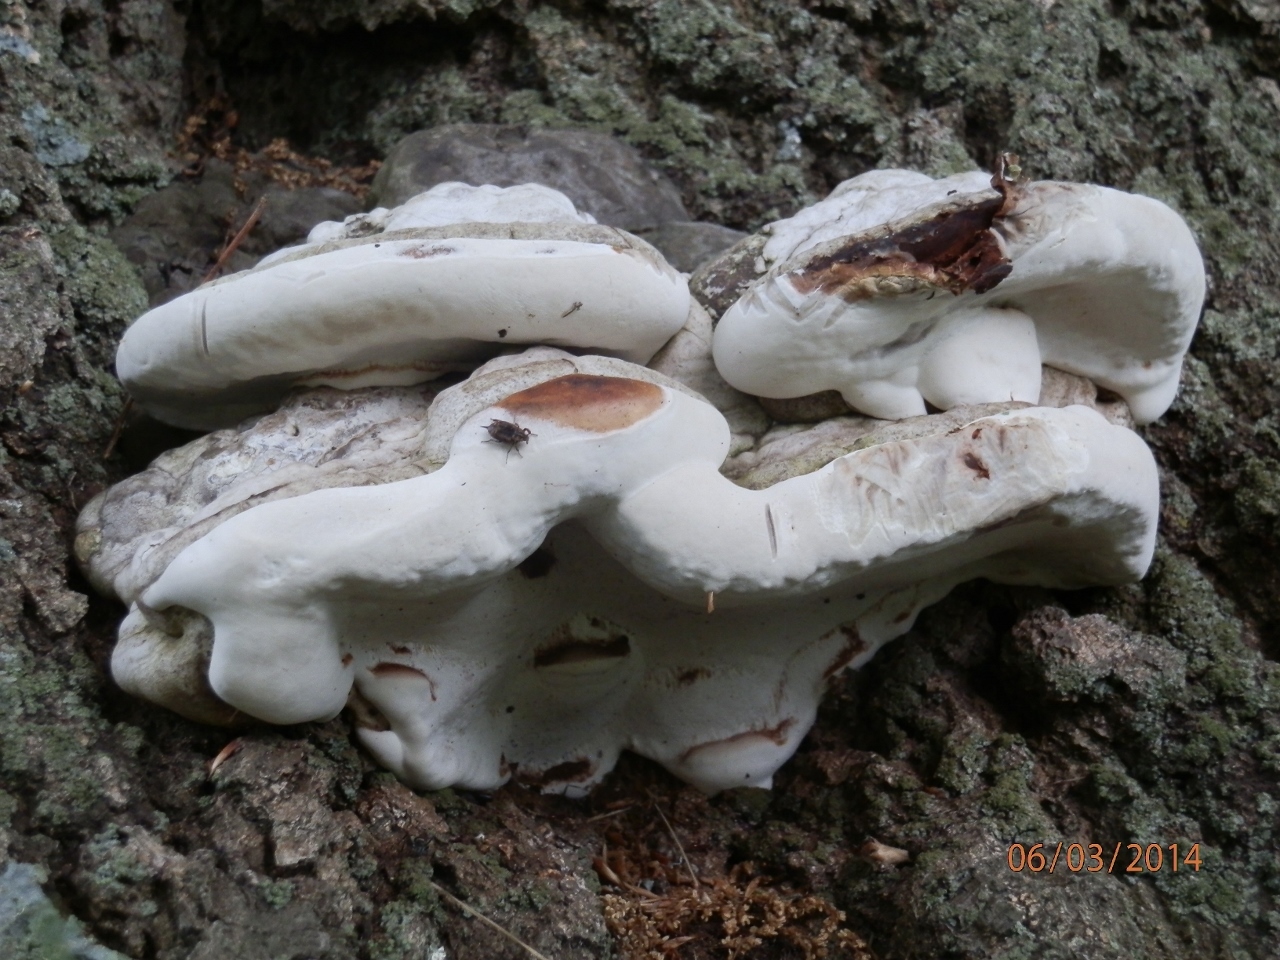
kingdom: Fungi
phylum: Basidiomycota
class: Agaricomycetes
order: Polyporales
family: Polyporaceae
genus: Ganoderma
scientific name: Ganoderma applanatum
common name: Artist's bracket
